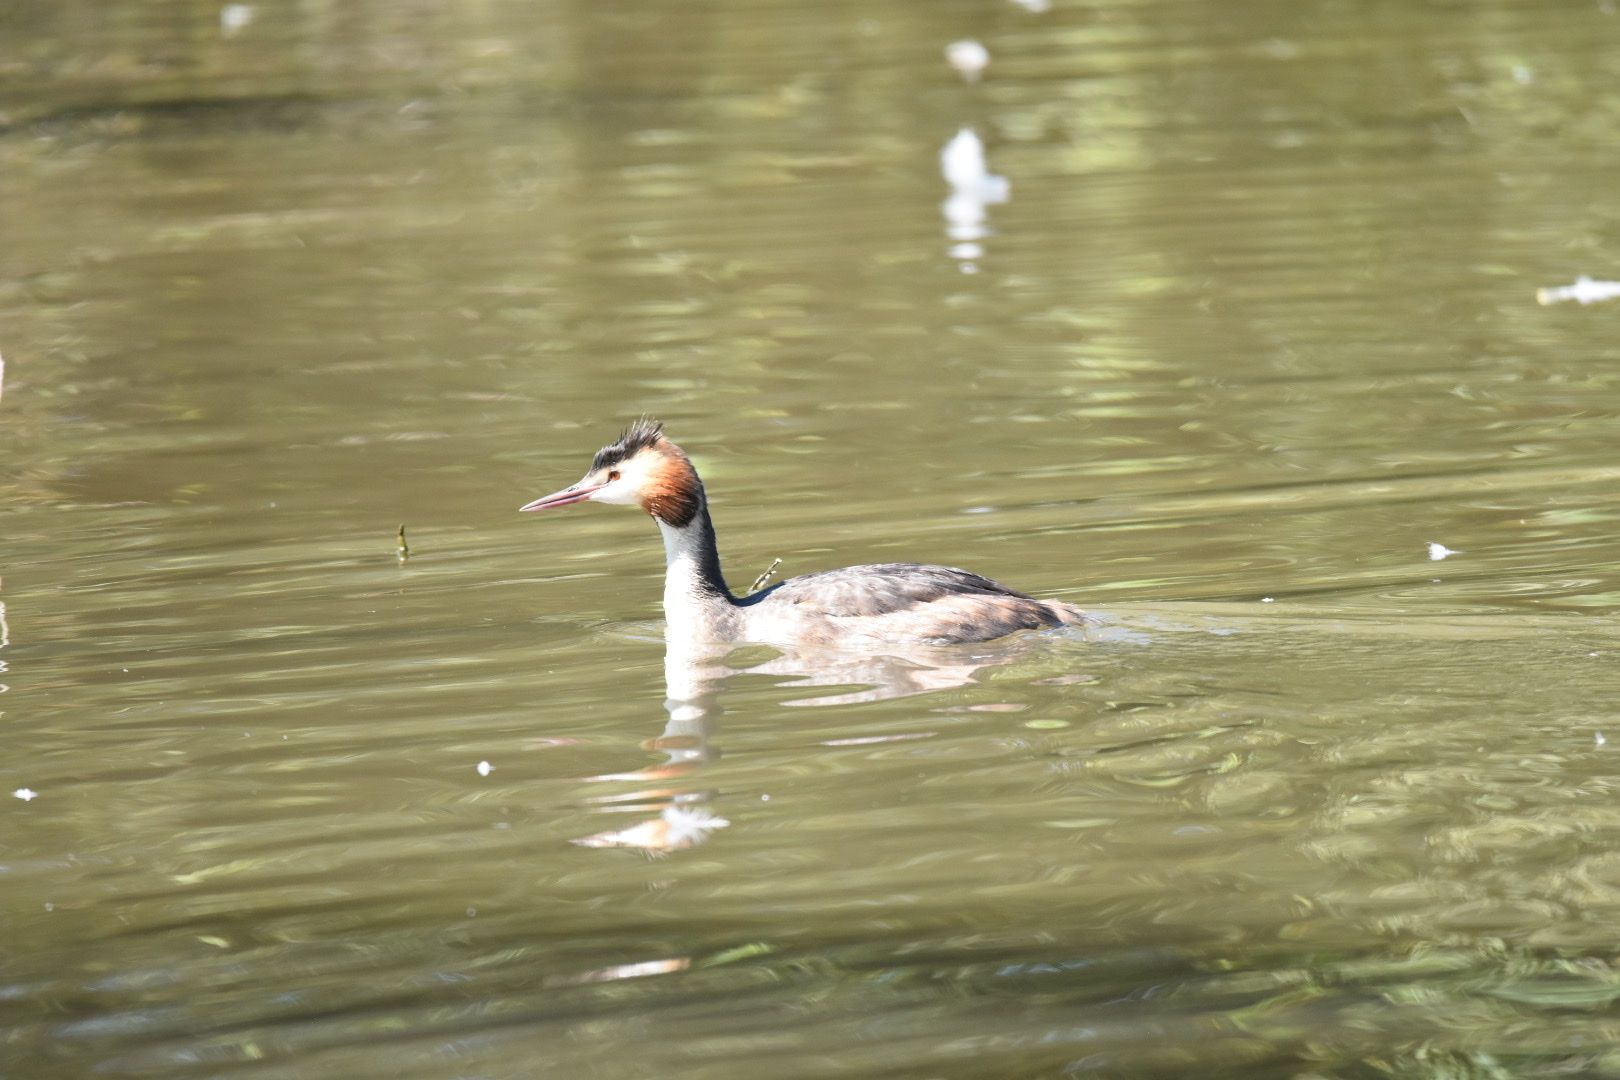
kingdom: Animalia
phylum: Chordata
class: Aves
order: Podicipediformes
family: Podicipedidae
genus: Podiceps
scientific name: Podiceps cristatus
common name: Great crested grebe
